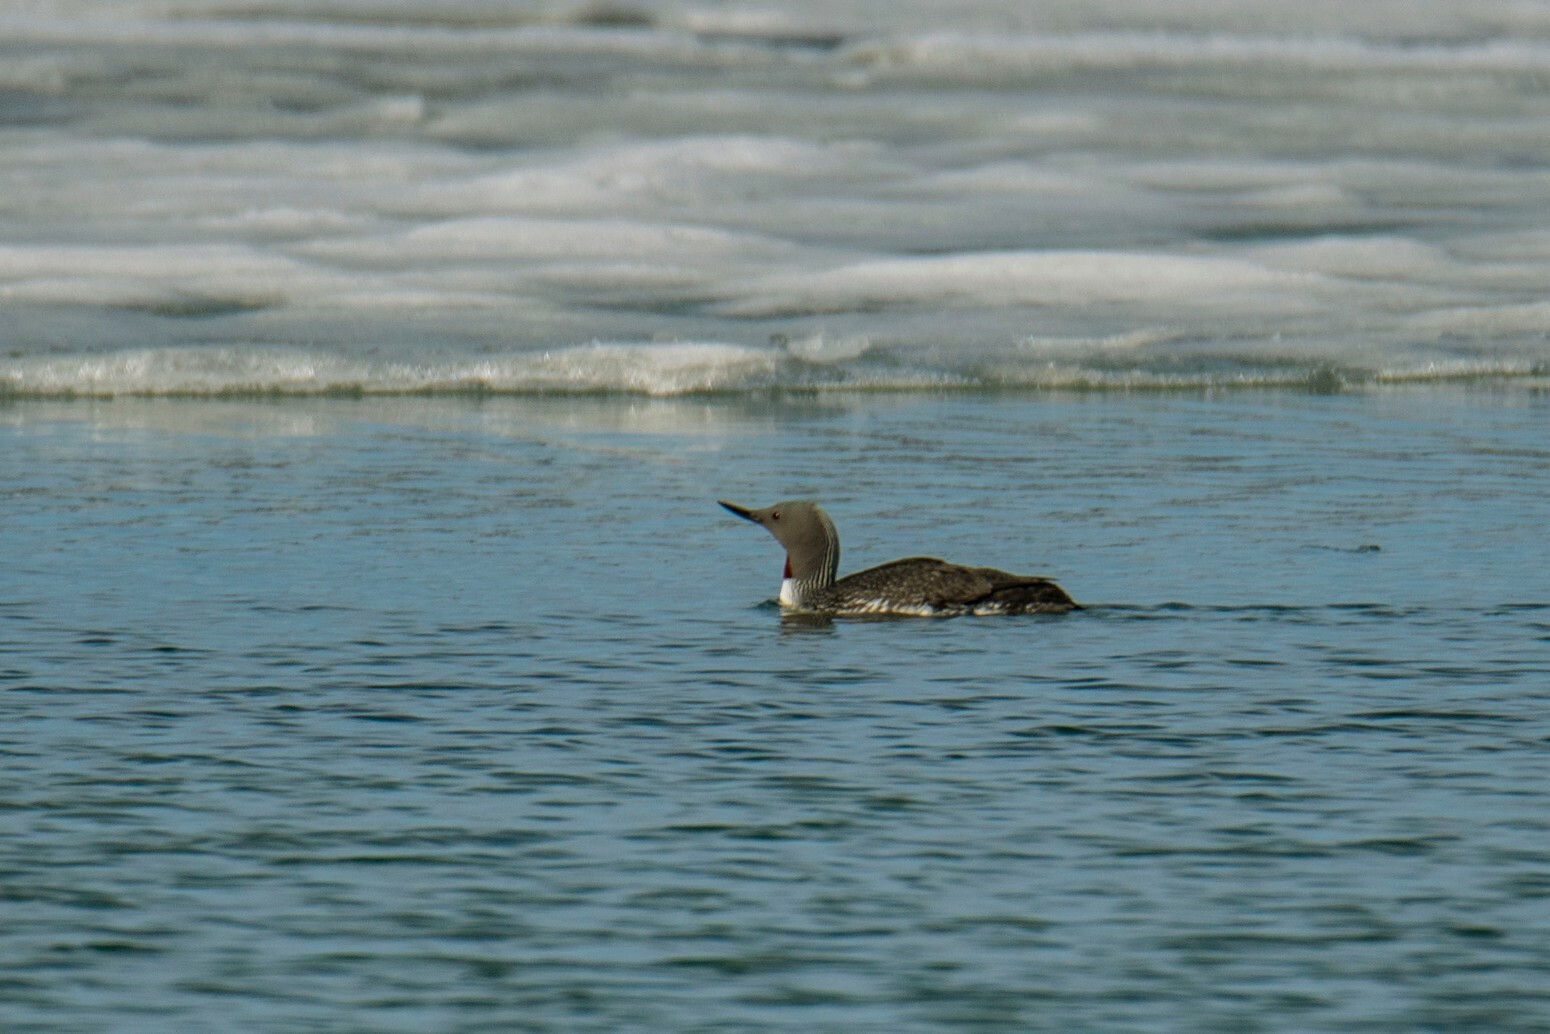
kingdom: Animalia
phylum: Chordata
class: Aves
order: Gaviiformes
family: Gaviidae
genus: Gavia
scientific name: Gavia stellata
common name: Red-throated loon
